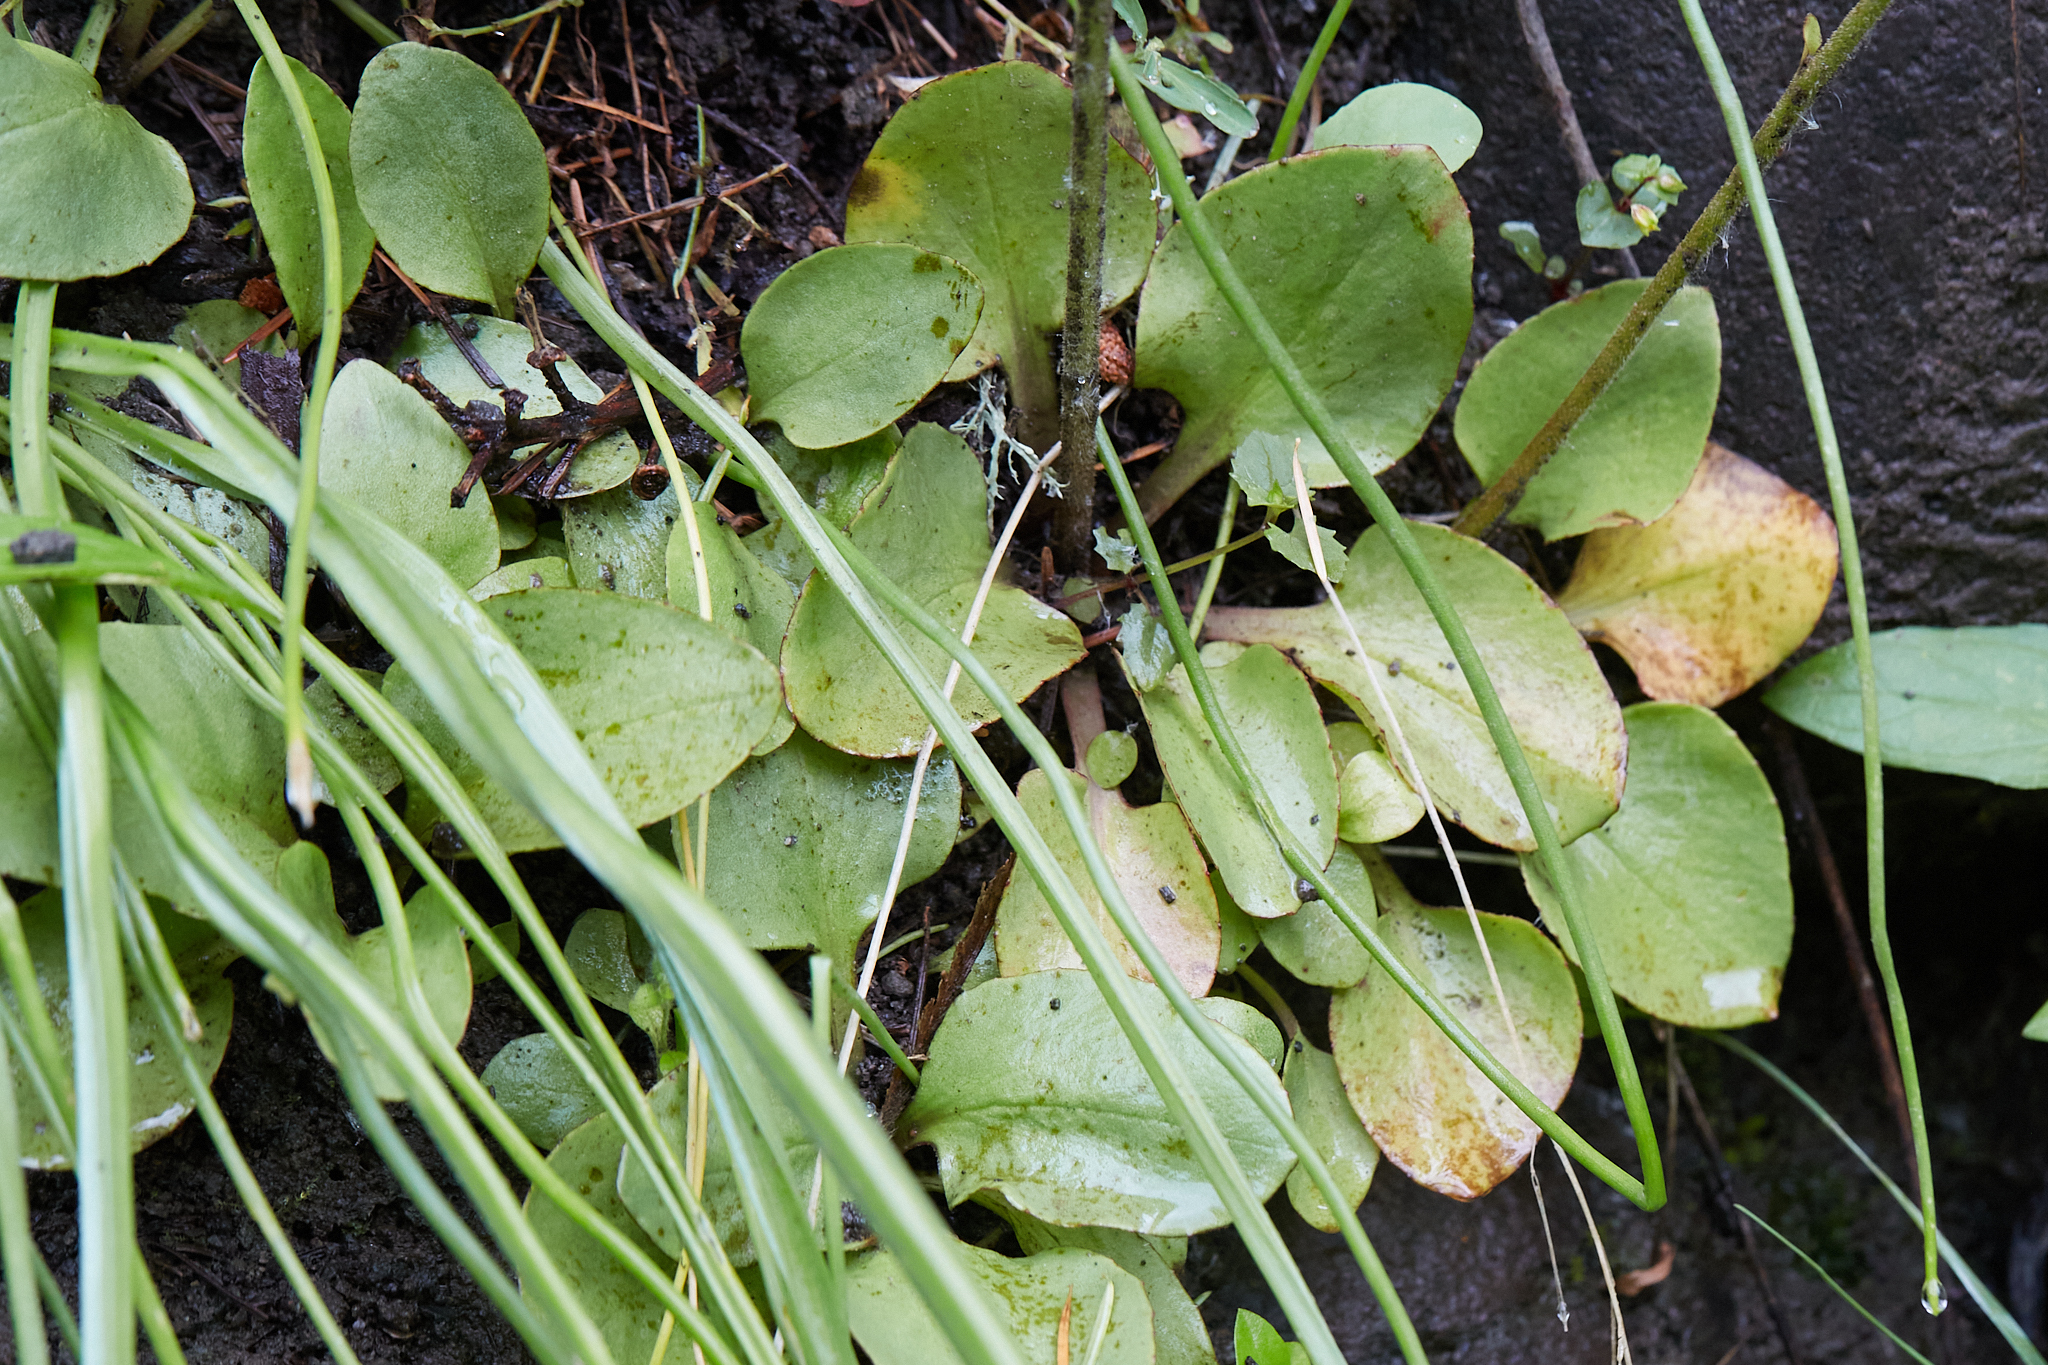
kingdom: Plantae
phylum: Tracheophyta
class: Magnoliopsida
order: Saxifragales
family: Saxifragaceae
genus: Micranthes
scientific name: Micranthes fragosa
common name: Peak saxifrage
